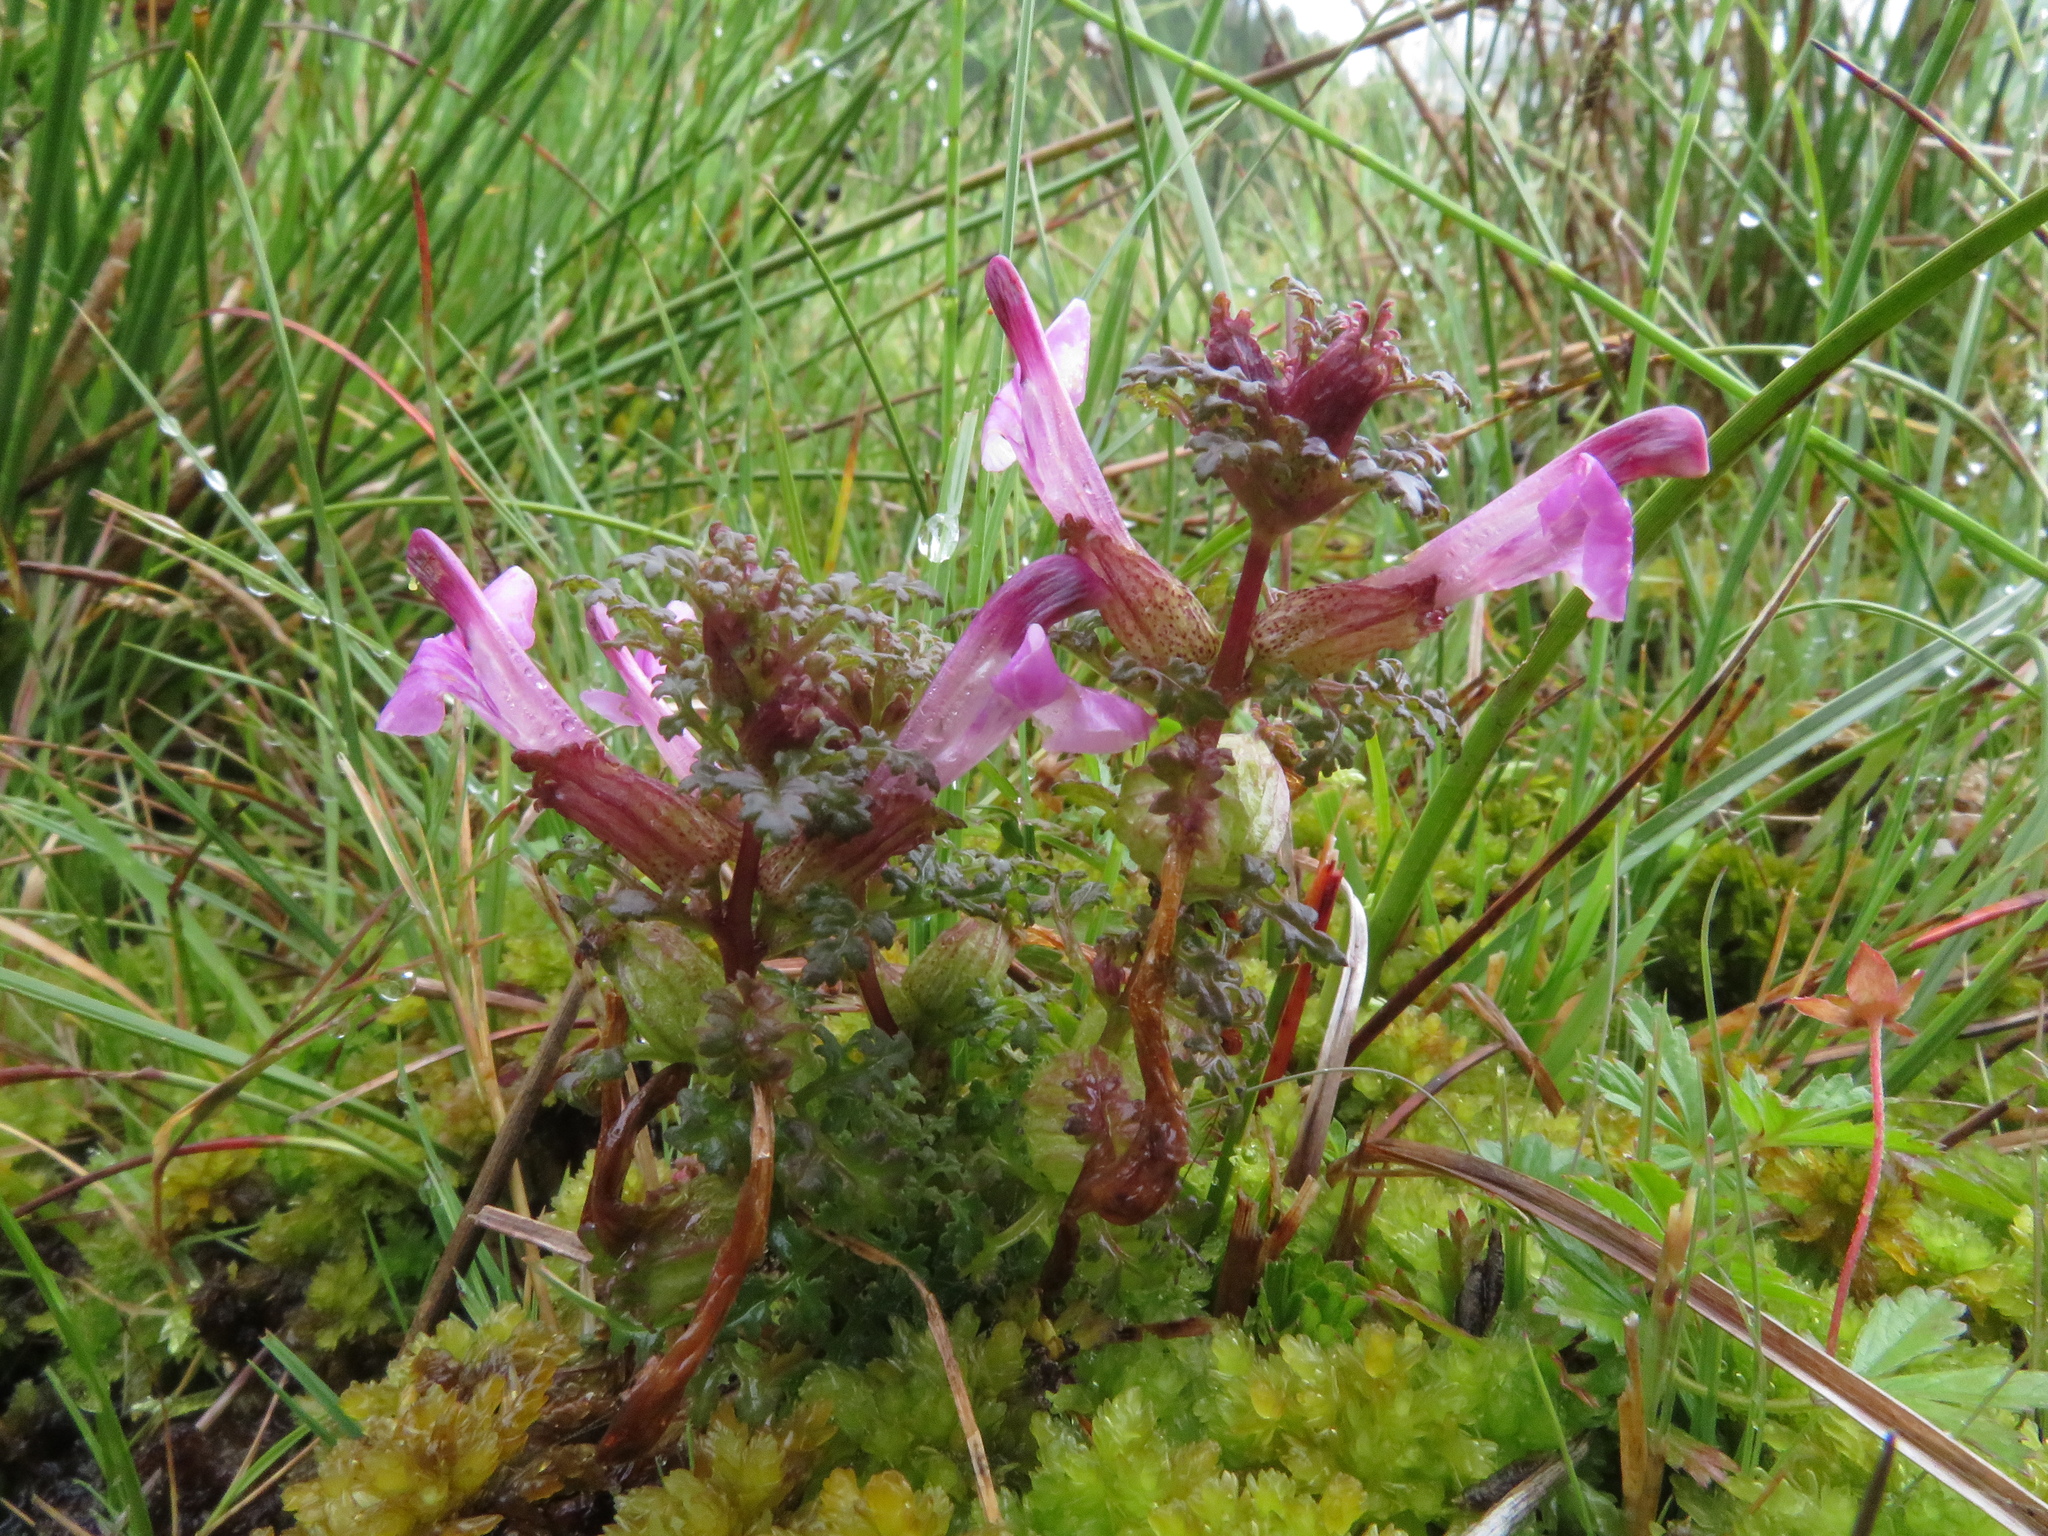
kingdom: Plantae
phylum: Tracheophyta
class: Magnoliopsida
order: Lamiales
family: Orobanchaceae
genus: Pedicularis
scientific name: Pedicularis palustris
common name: Marsh lousewort
